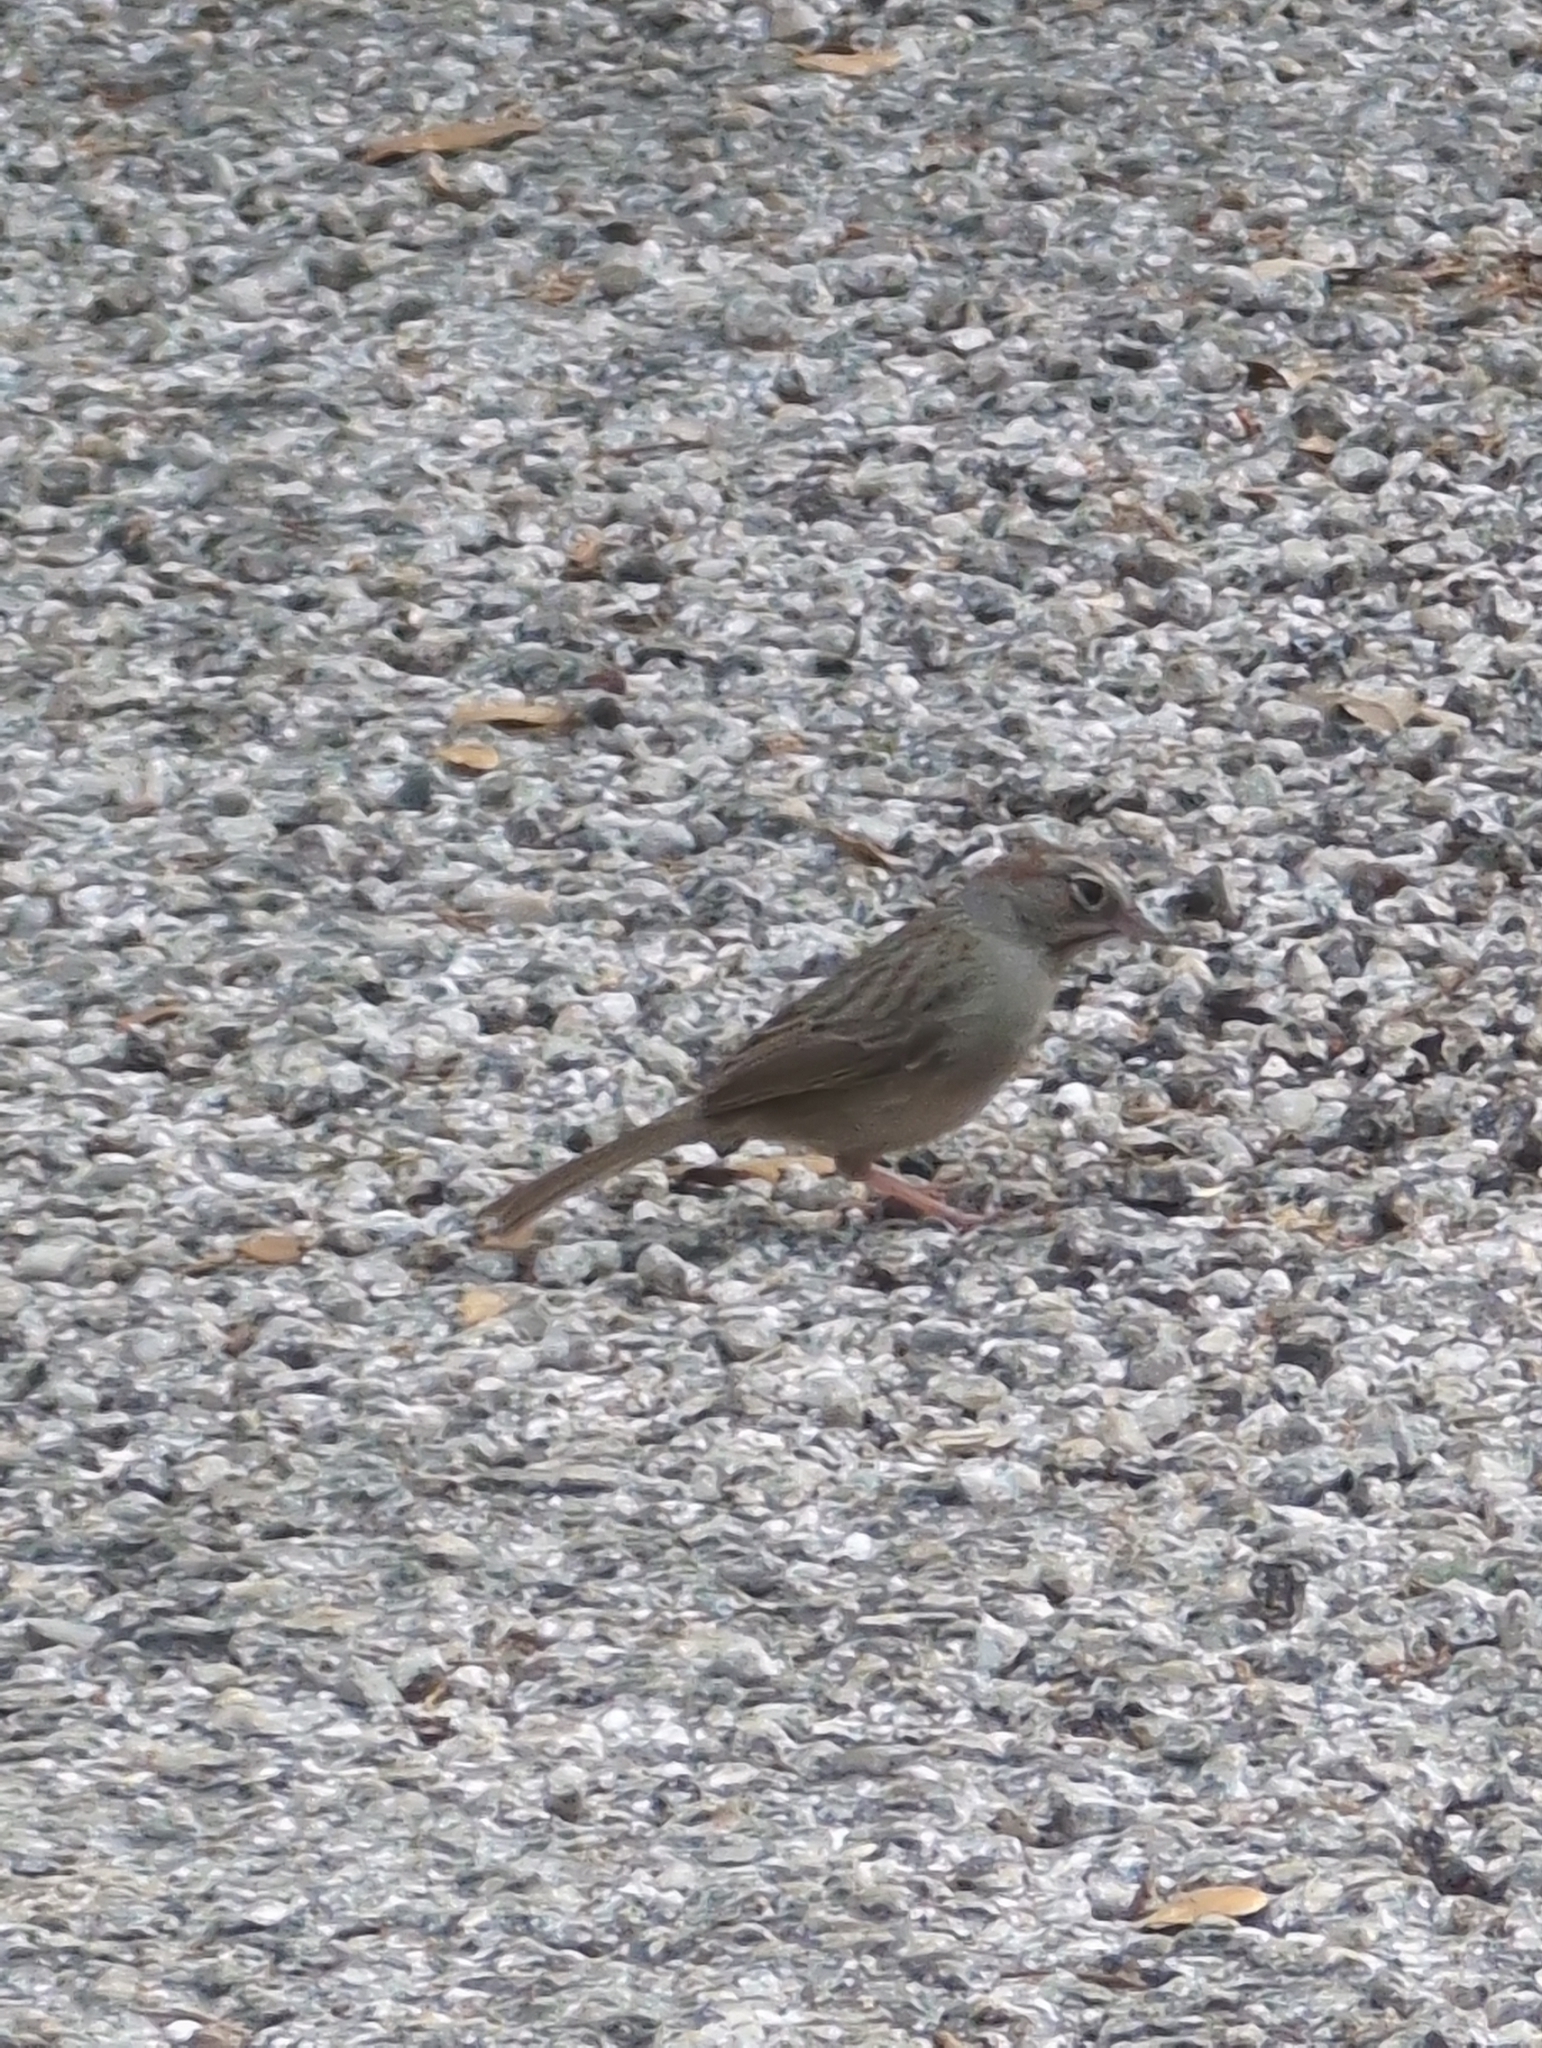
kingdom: Animalia
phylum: Chordata
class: Aves
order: Passeriformes
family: Passerellidae
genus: Aimophila
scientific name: Aimophila ruficeps
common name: Rufous-crowned sparrow
